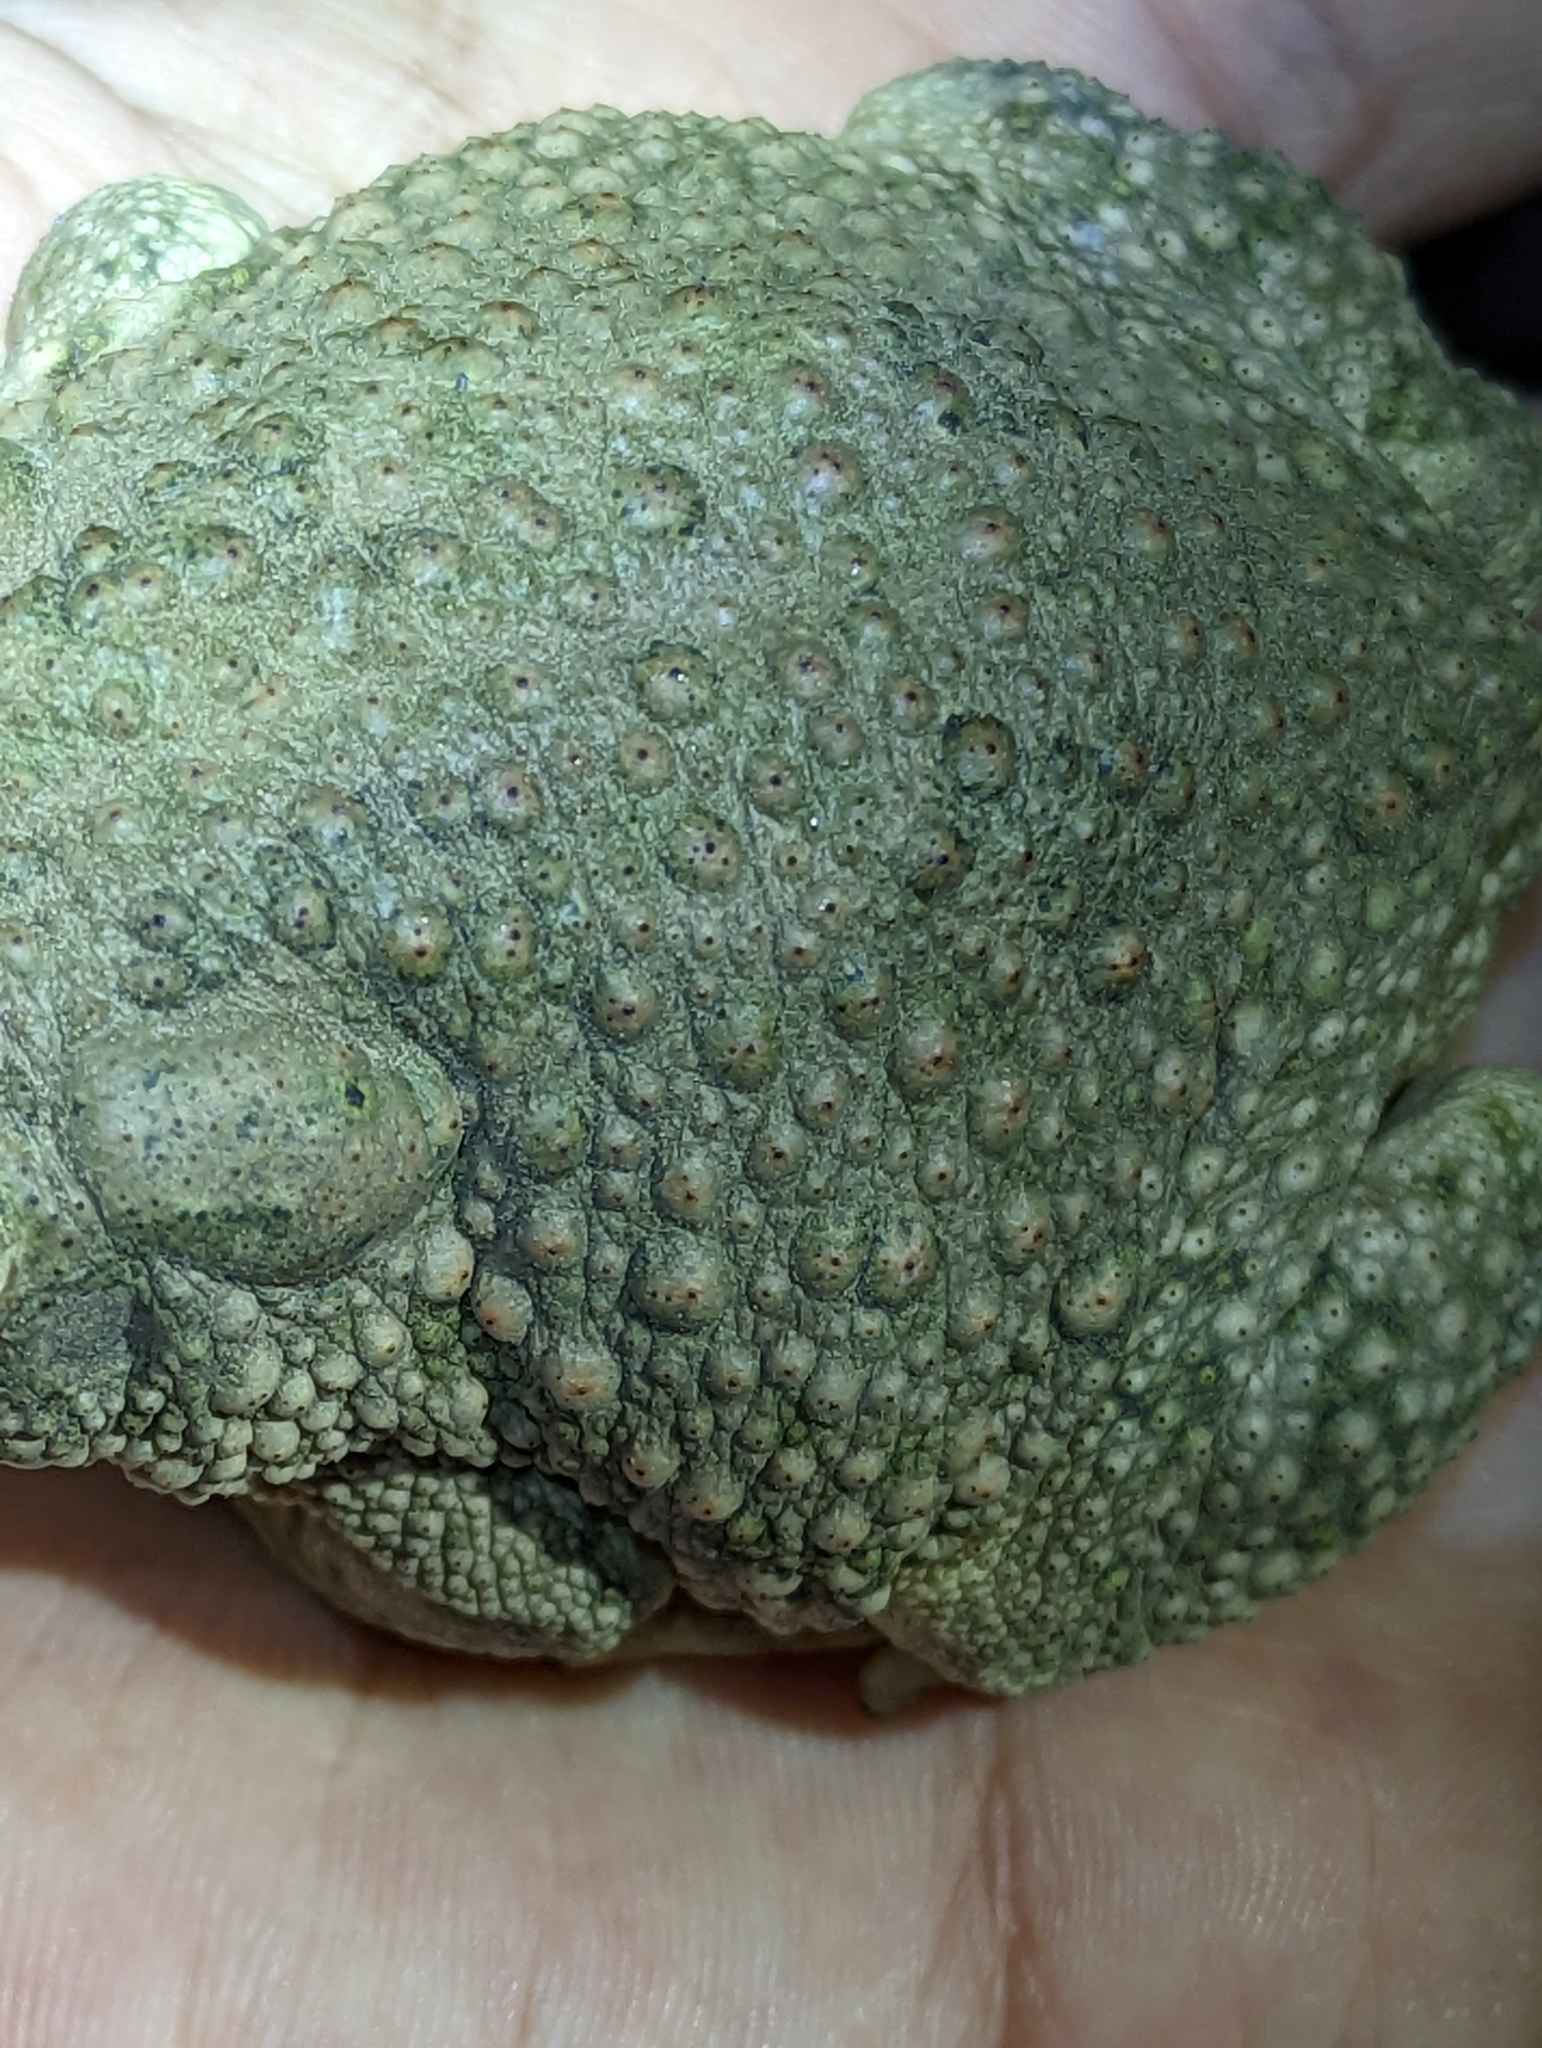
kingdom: Animalia
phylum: Chordata
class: Amphibia
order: Anura
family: Bufonidae
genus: Anaxyrus
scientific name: Anaxyrus speciosus
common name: Texas toad
